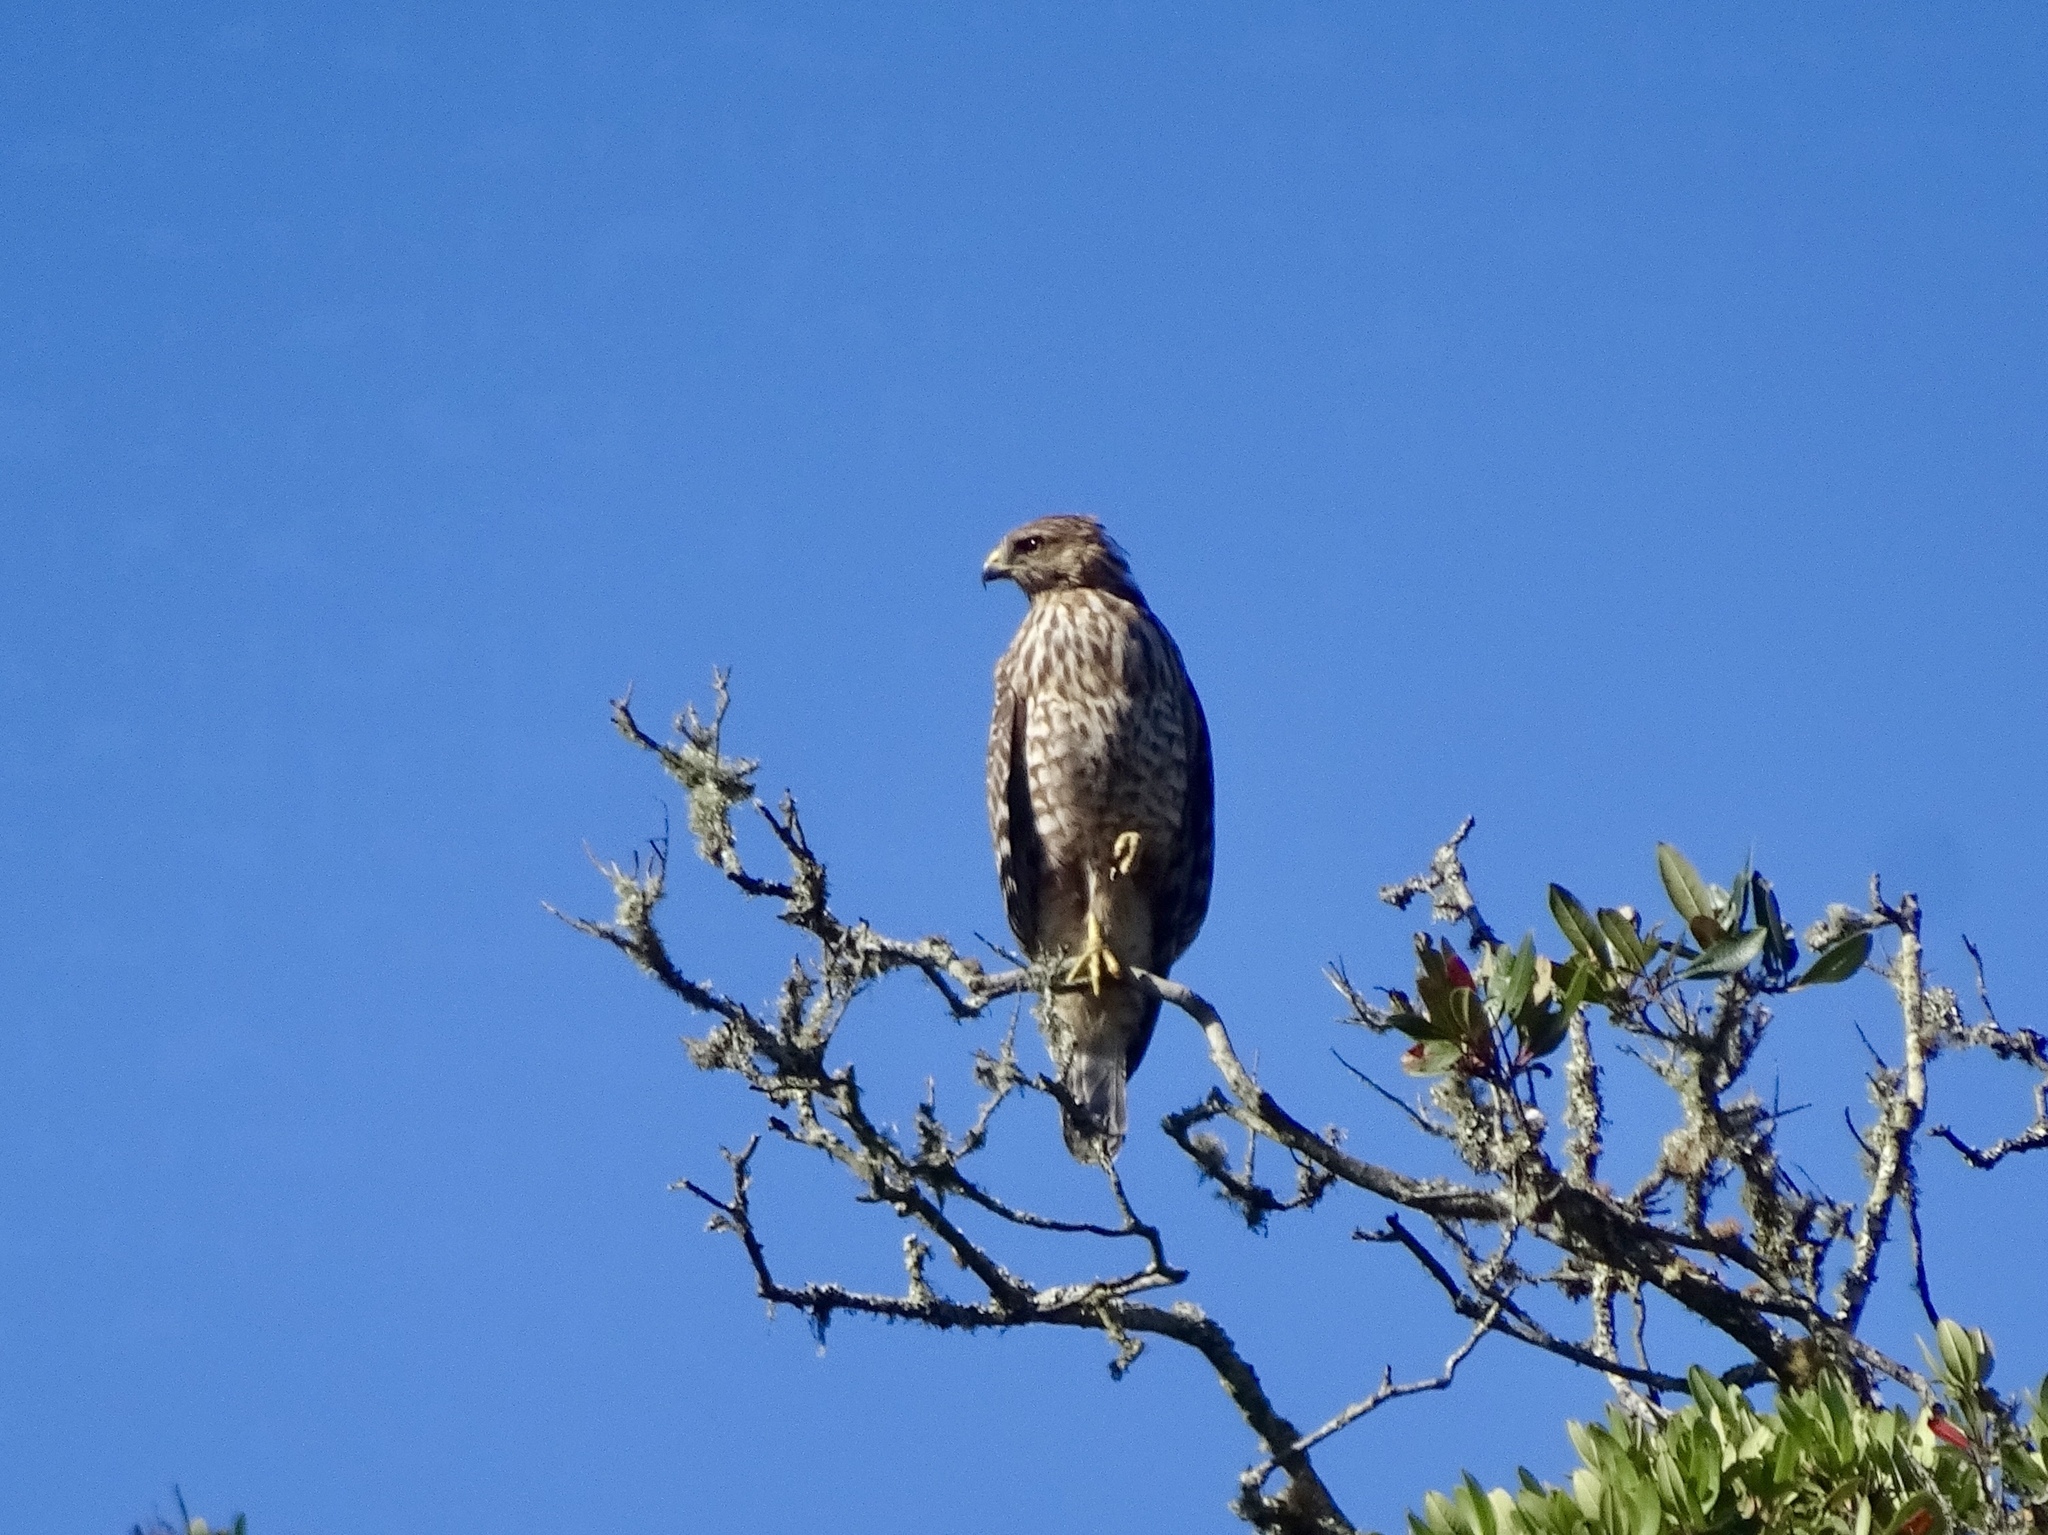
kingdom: Animalia
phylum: Chordata
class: Aves
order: Accipitriformes
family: Accipitridae
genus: Buteo
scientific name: Buteo lineatus
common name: Red-shouldered hawk
